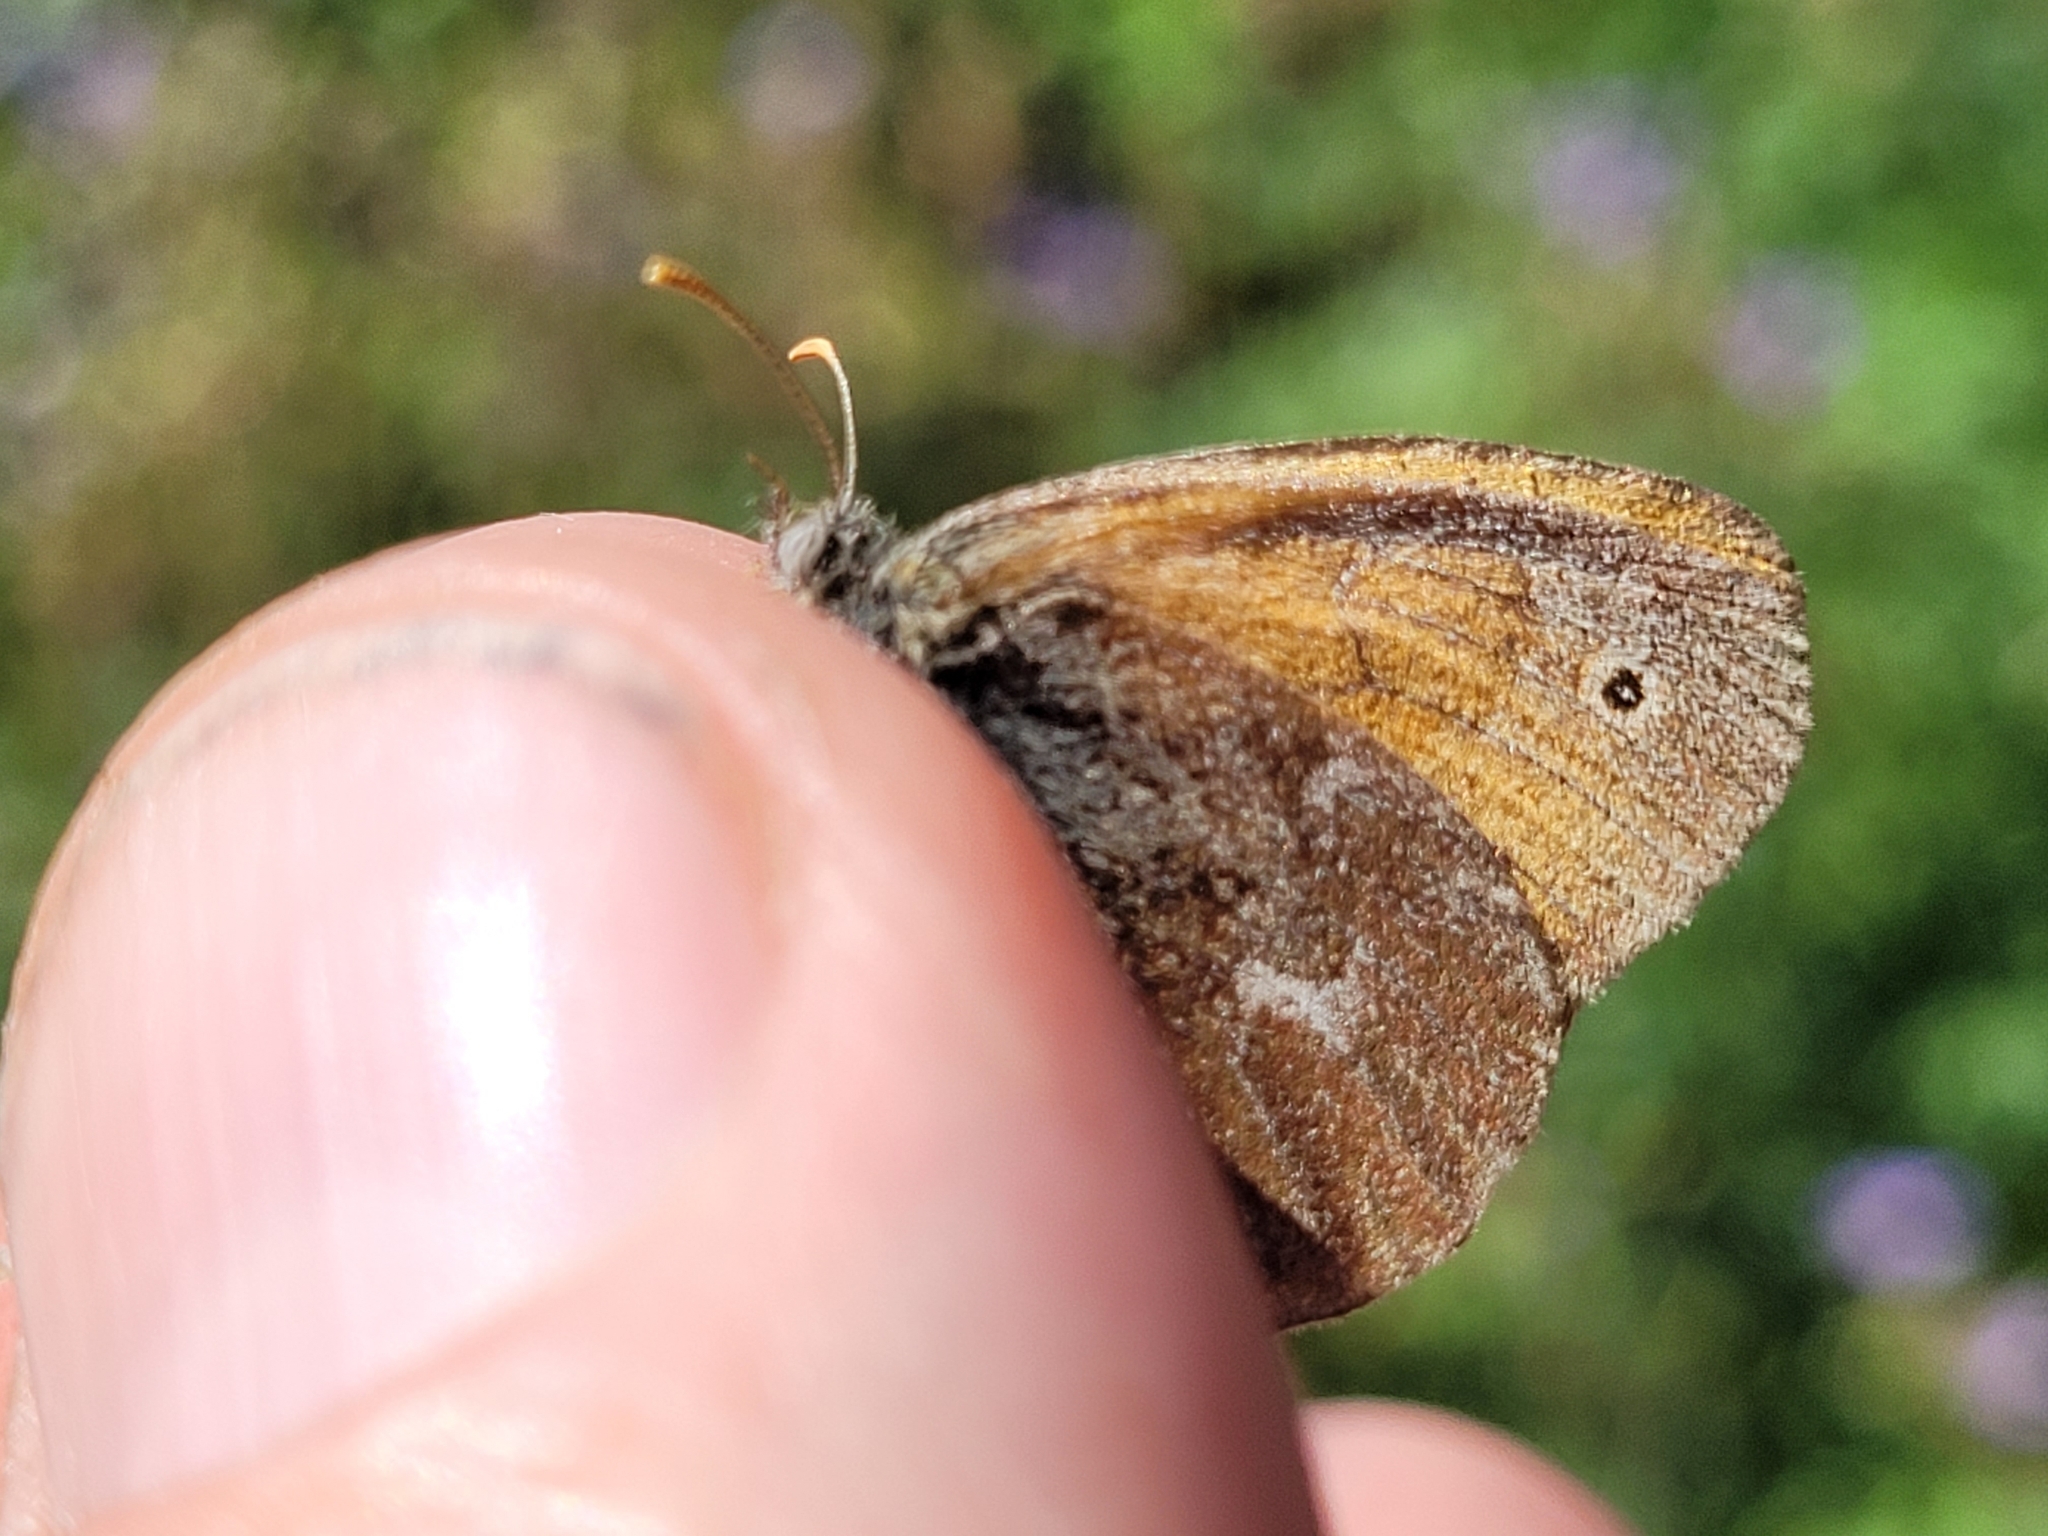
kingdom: Animalia
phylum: Arthropoda
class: Insecta
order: Lepidoptera
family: Nymphalidae
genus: Coenonympha
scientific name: Coenonympha california
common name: Common ringlet
